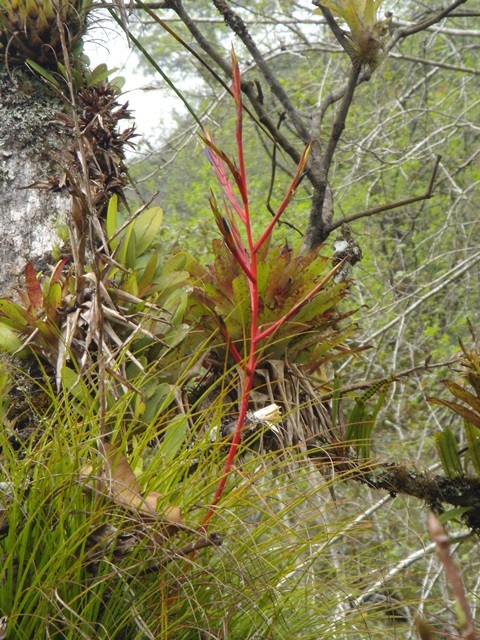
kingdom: Plantae
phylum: Tracheophyta
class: Liliopsida
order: Poales
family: Bromeliaceae
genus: Tillandsia
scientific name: Tillandsia kirchhoffiana
